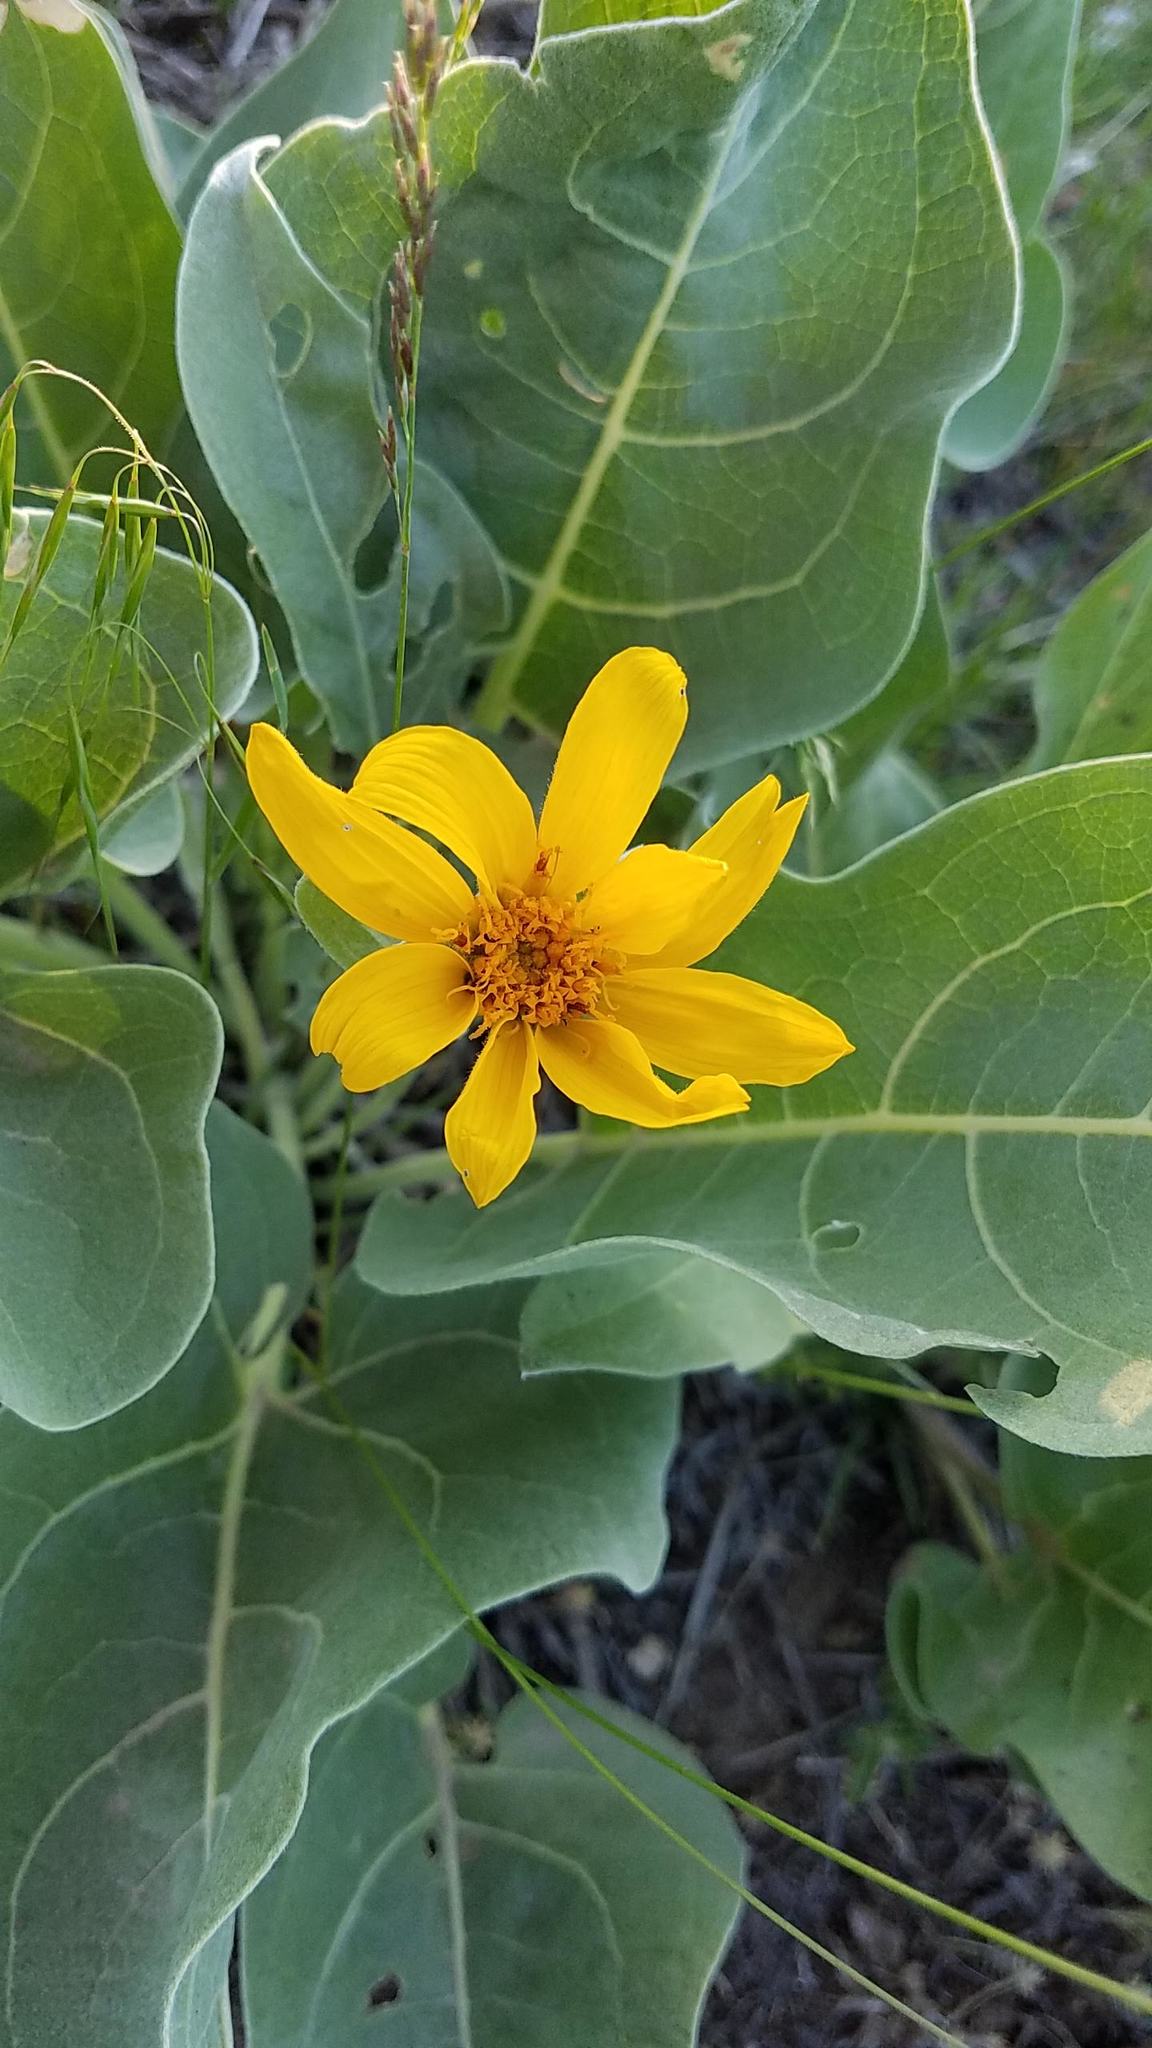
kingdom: Plantae
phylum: Tracheophyta
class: Magnoliopsida
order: Asterales
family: Asteraceae
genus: Wyethia
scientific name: Wyethia sagittata
